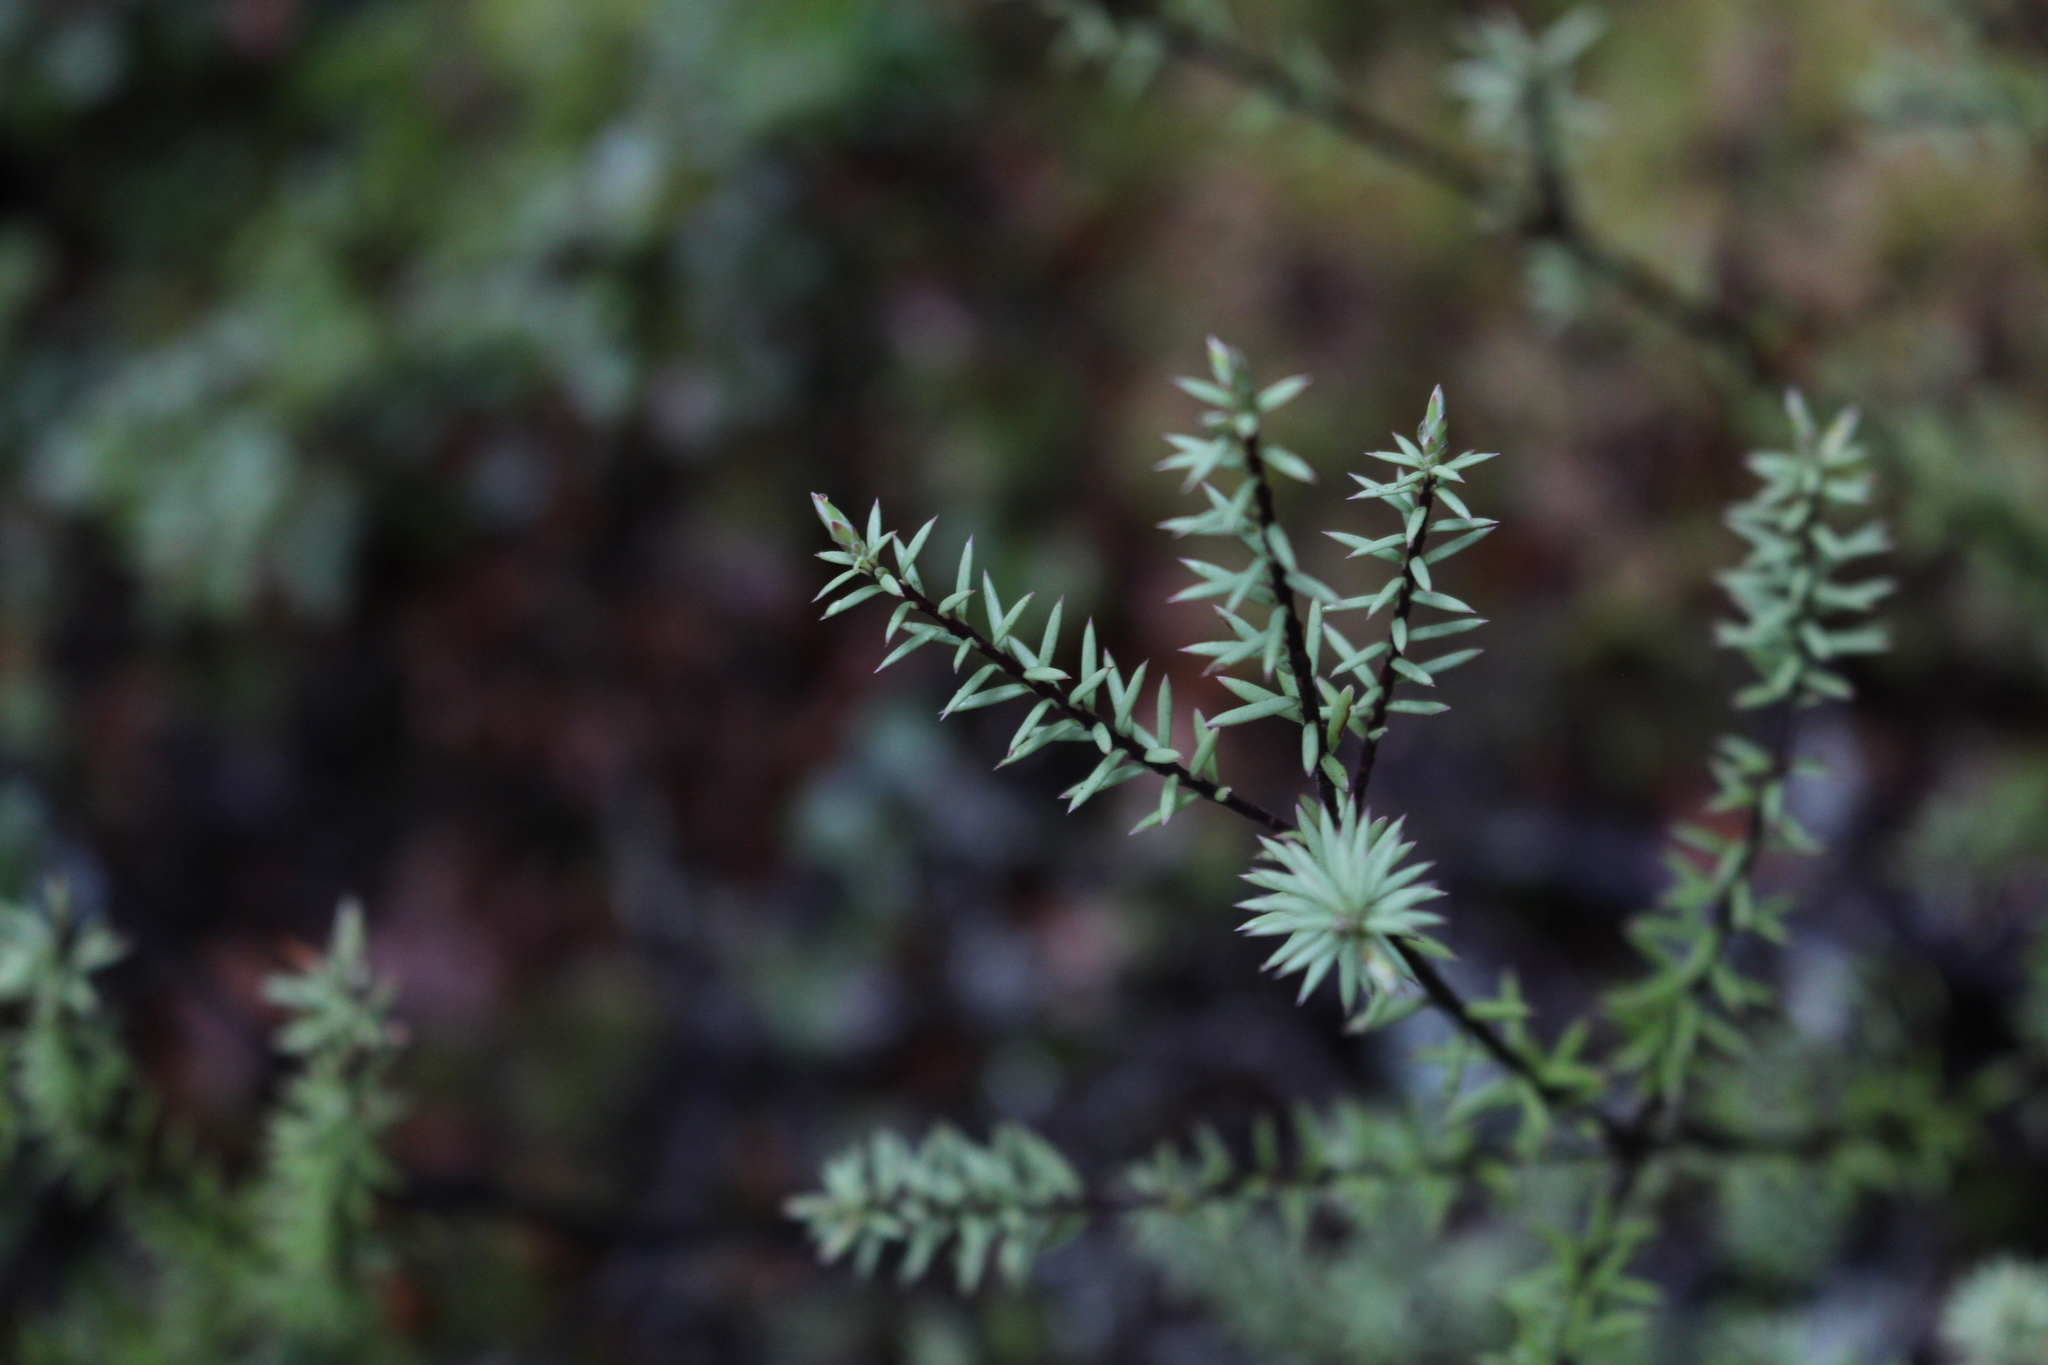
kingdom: Plantae
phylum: Tracheophyta
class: Magnoliopsida
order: Ericales
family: Ericaceae
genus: Leptecophylla
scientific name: Leptecophylla juniperina
